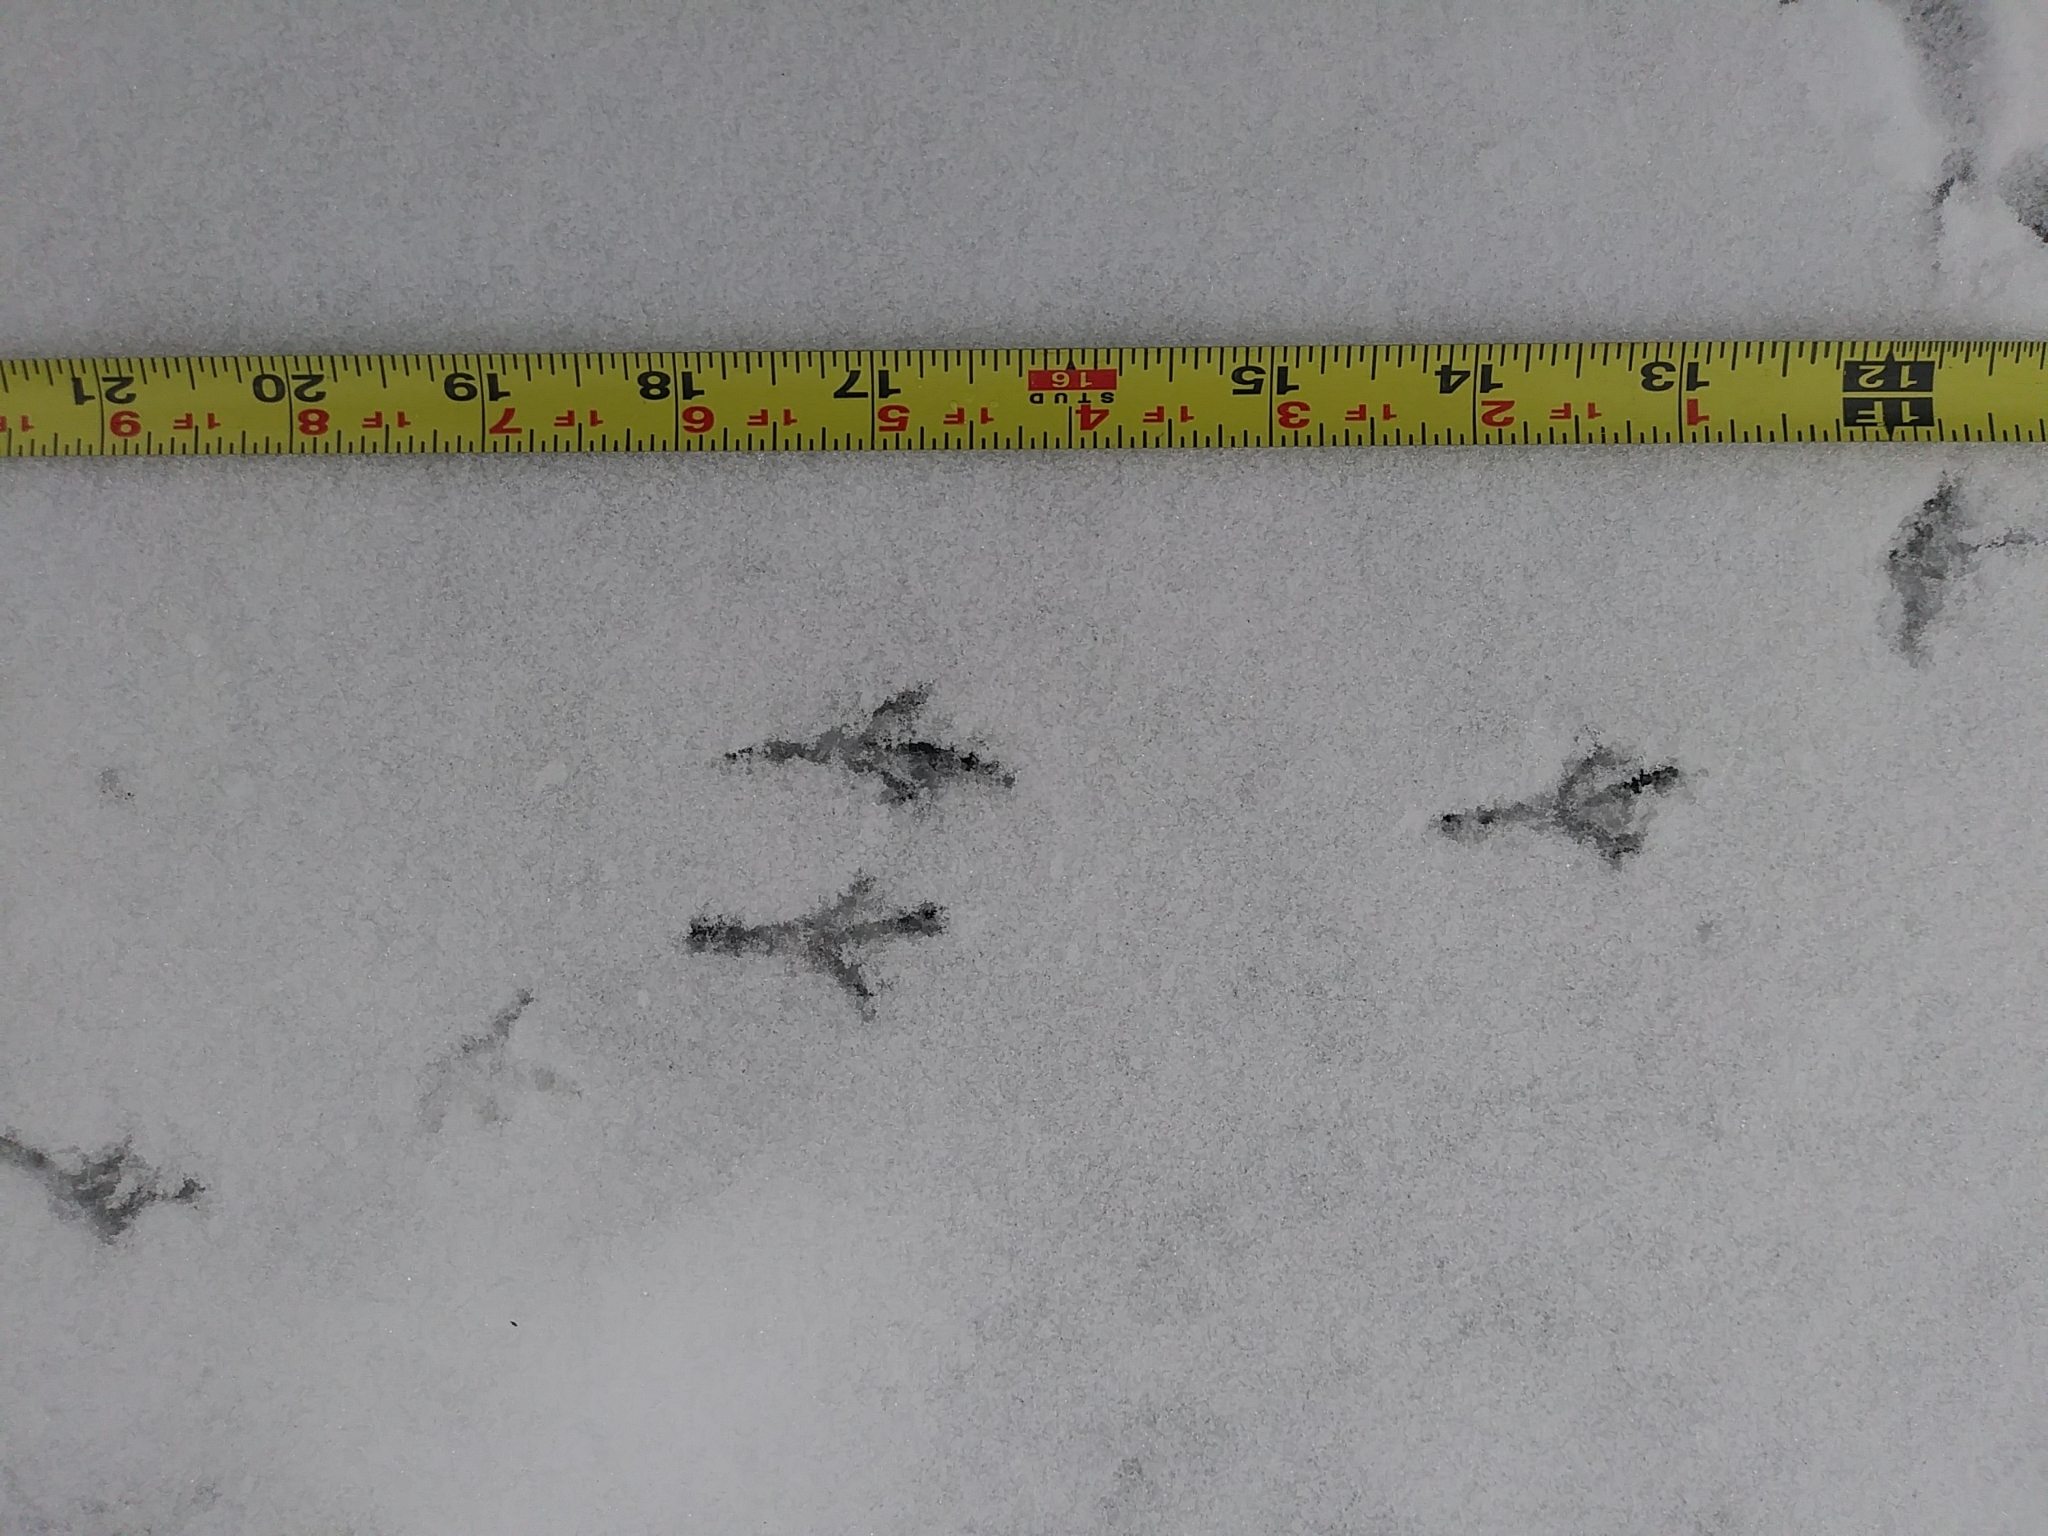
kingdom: Animalia
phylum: Chordata
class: Aves
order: Passeriformes
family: Passerellidae
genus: Junco
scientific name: Junco hyemalis
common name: Dark-eyed junco
